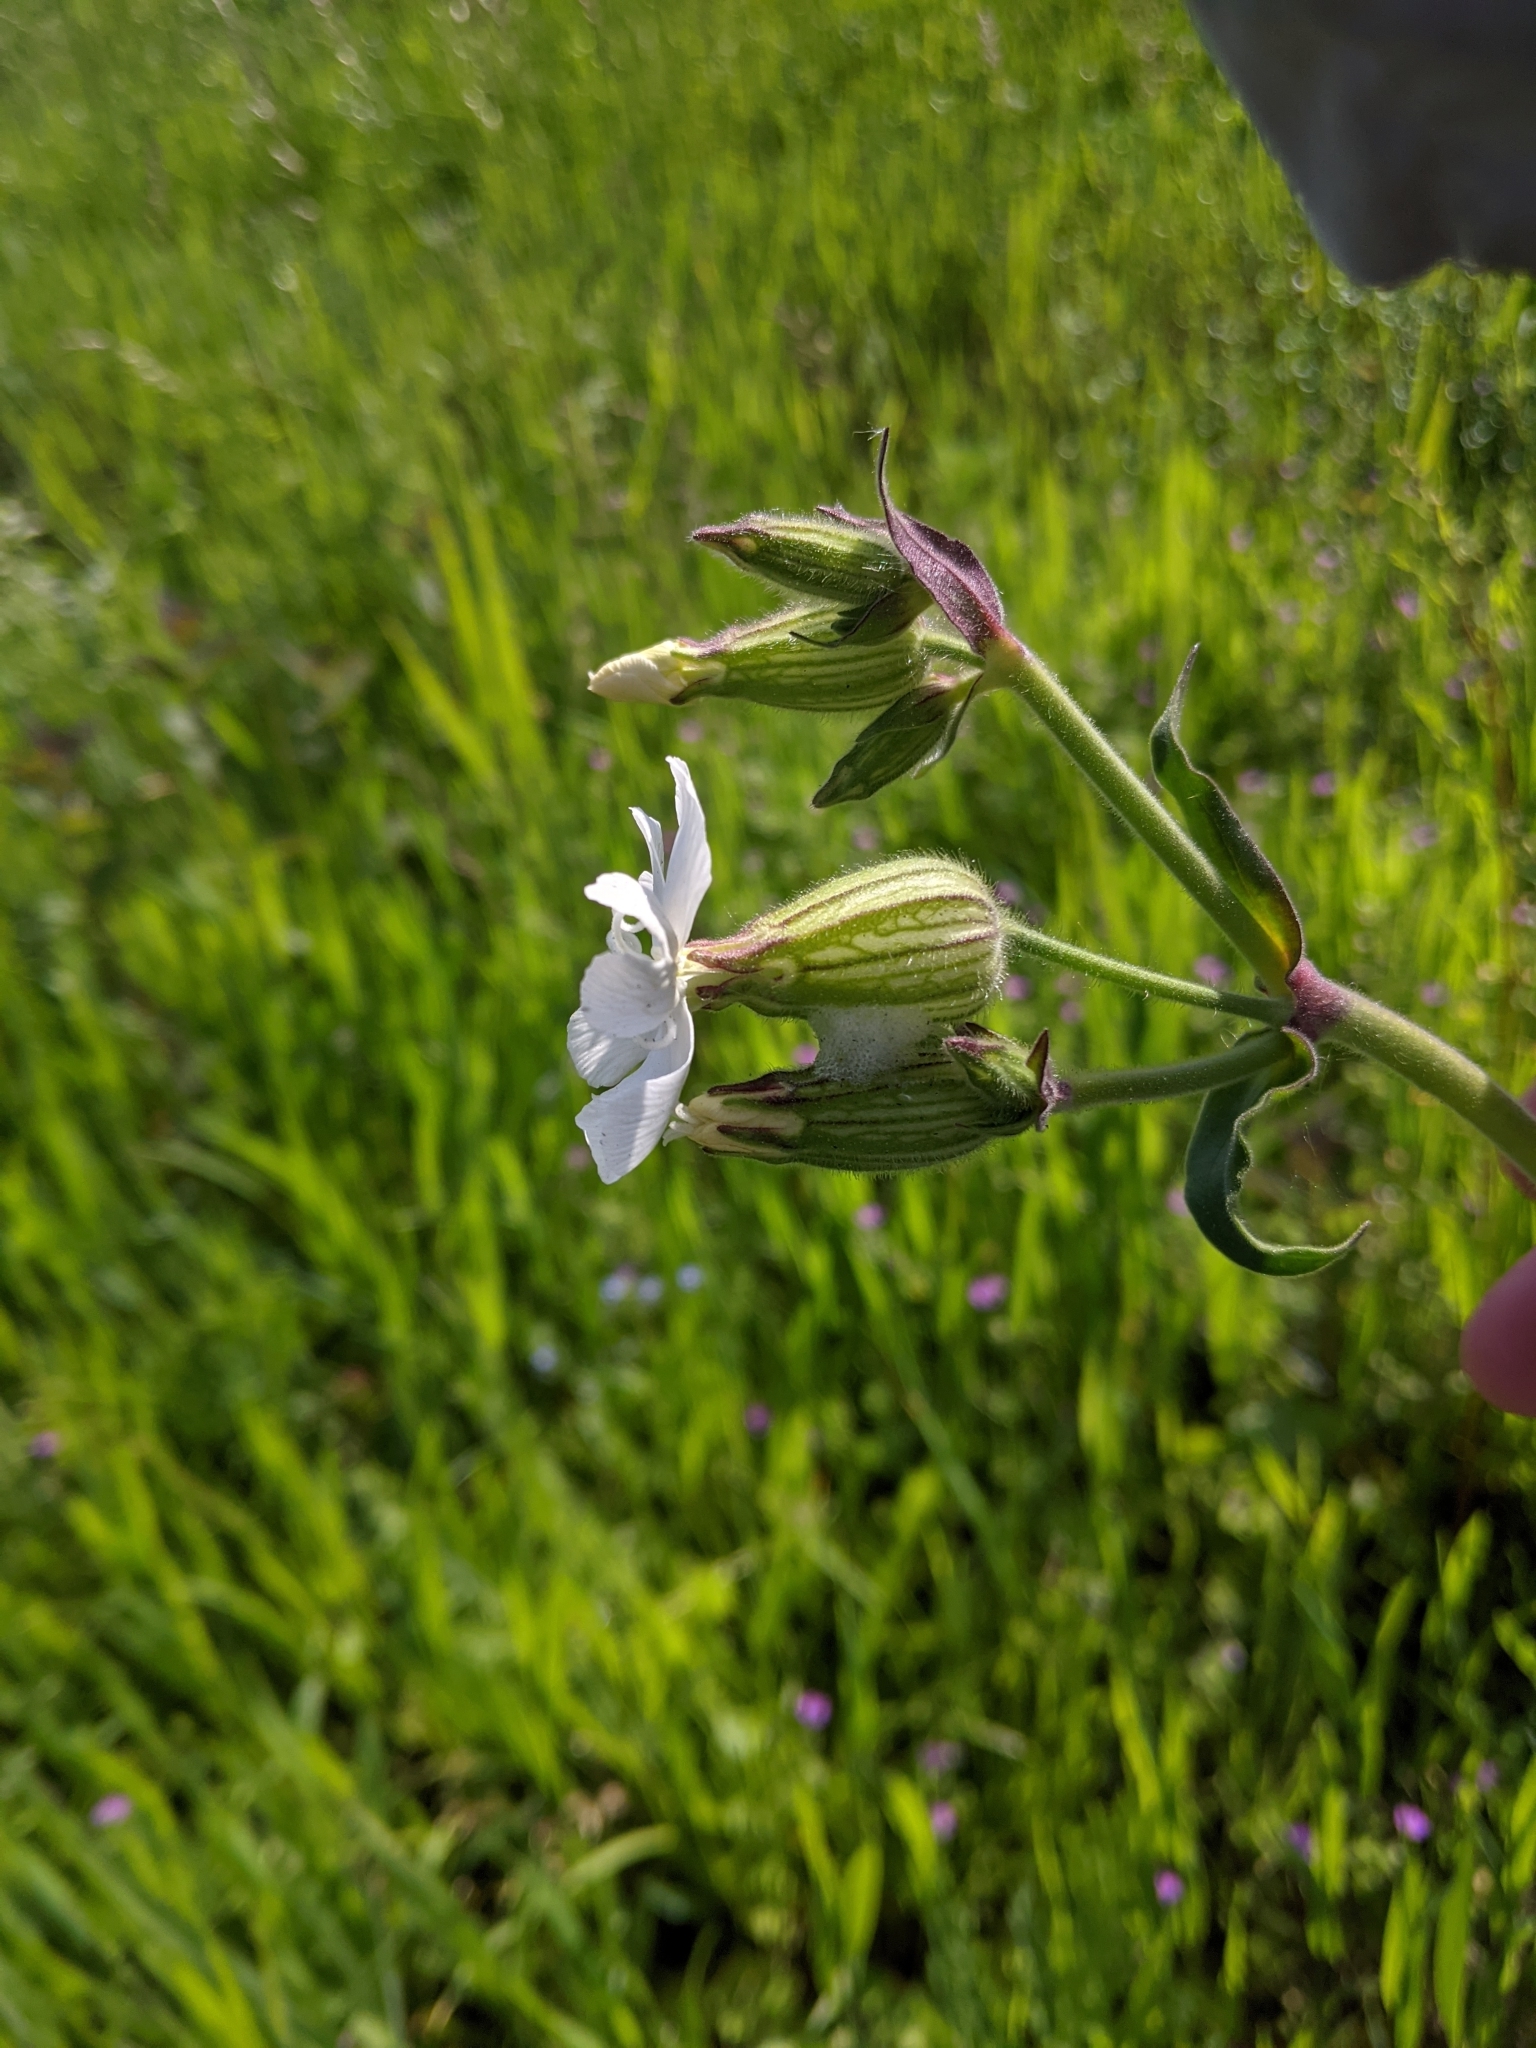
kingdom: Plantae
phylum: Tracheophyta
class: Magnoliopsida
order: Caryophyllales
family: Caryophyllaceae
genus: Silene
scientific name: Silene latifolia
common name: White campion
